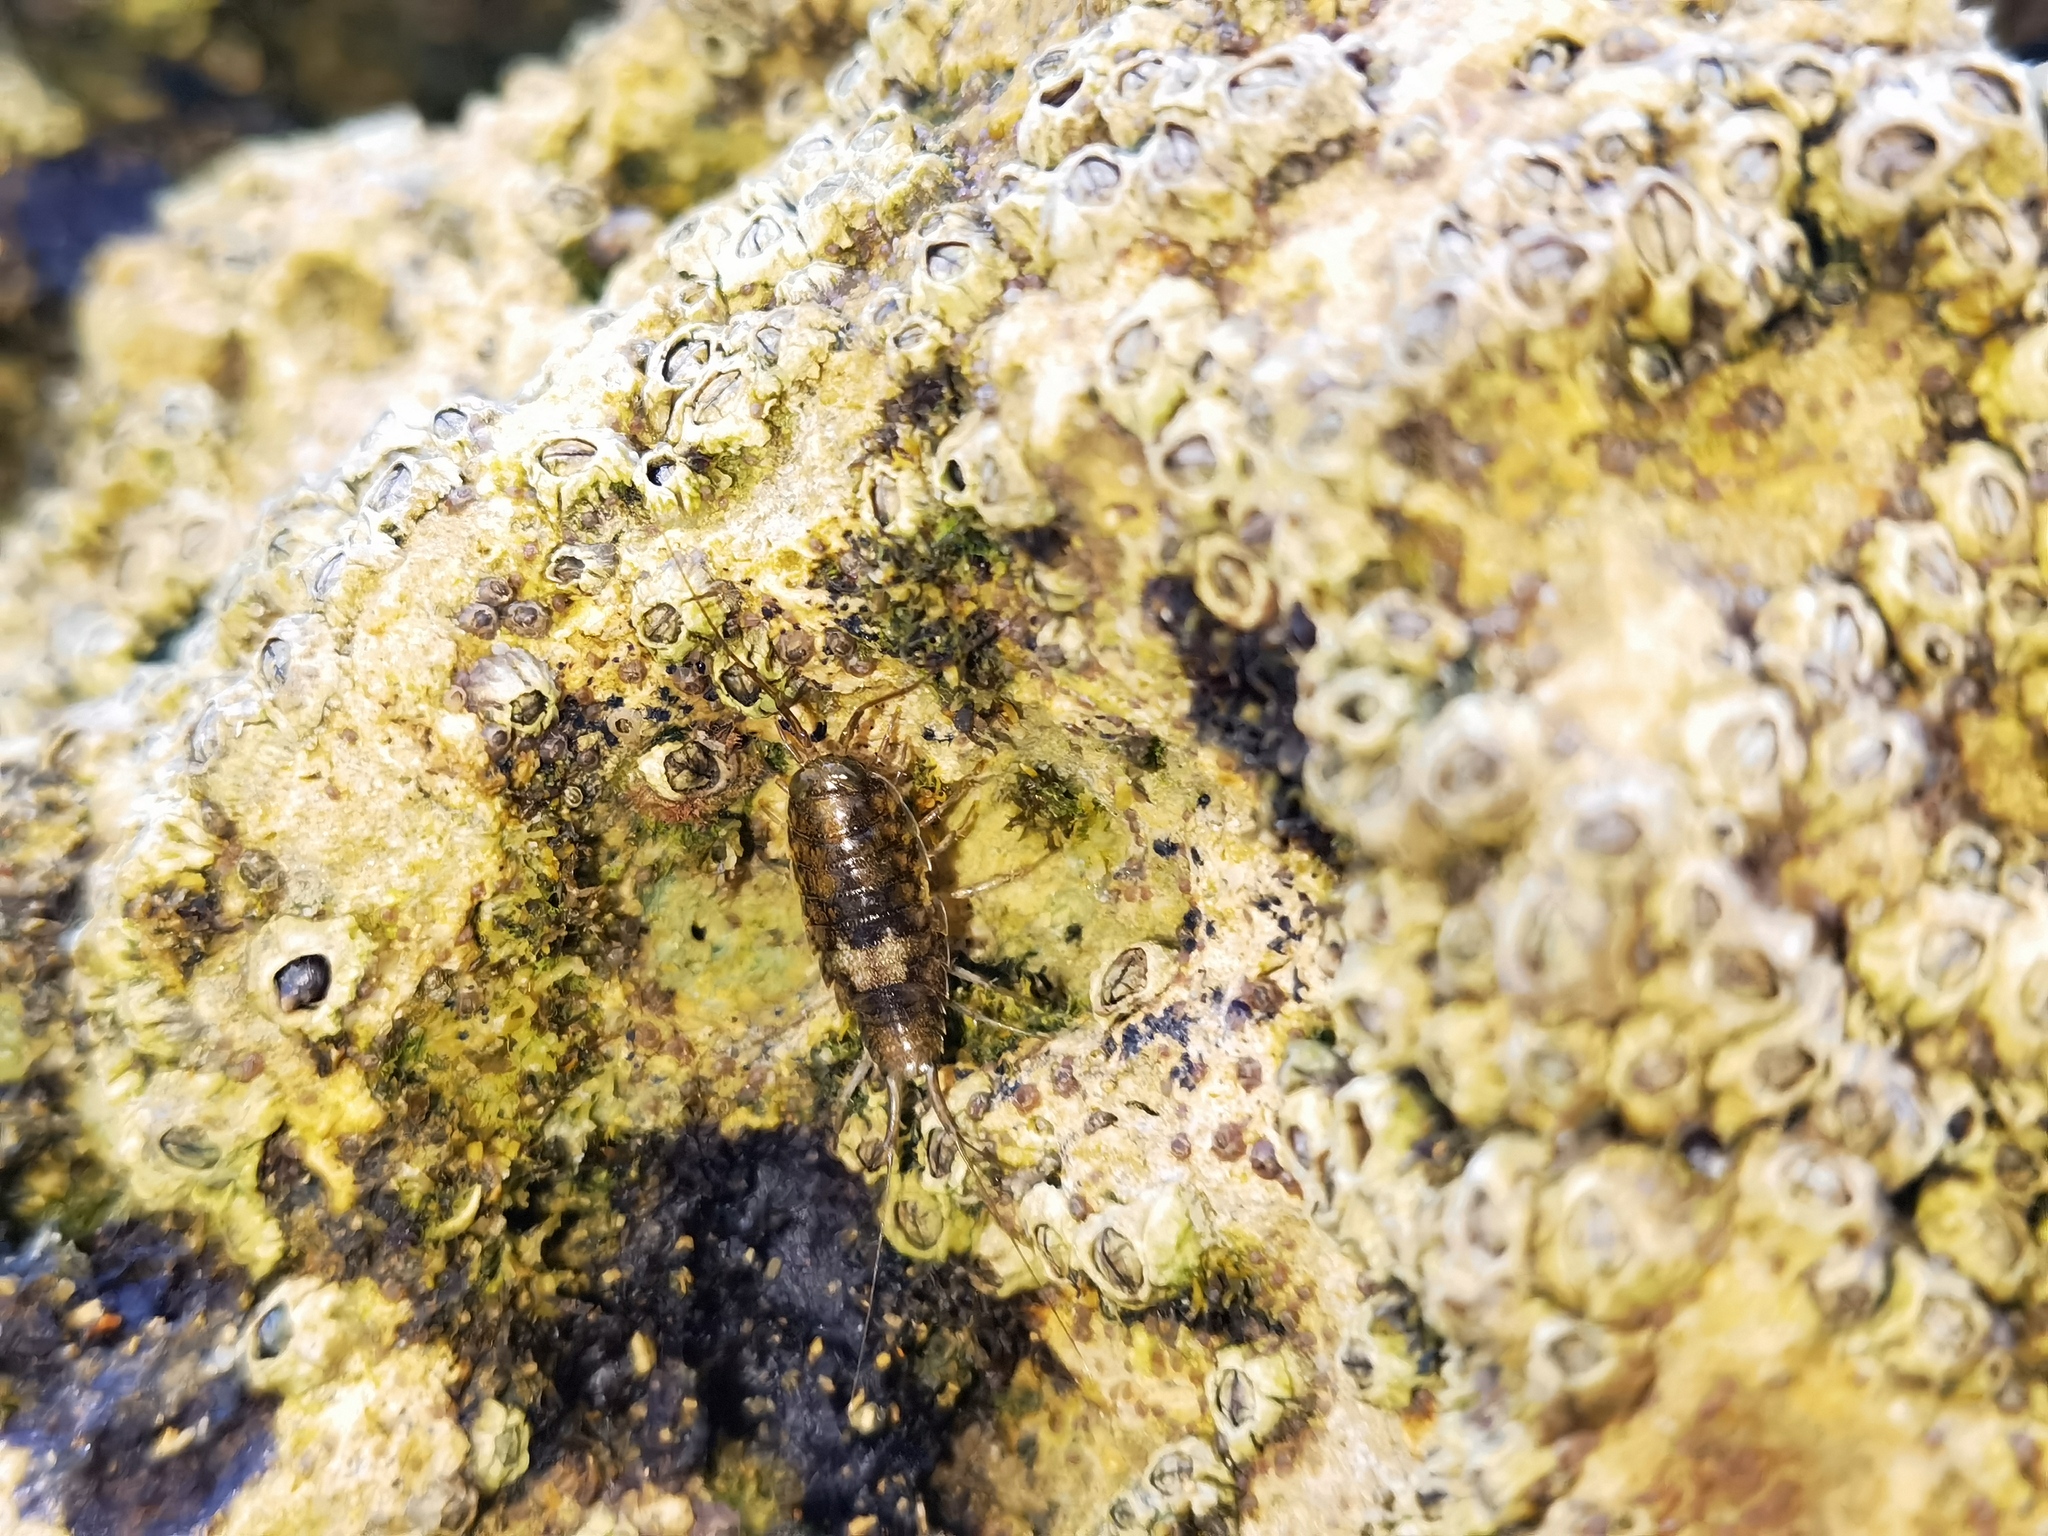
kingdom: Animalia
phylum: Arthropoda
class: Malacostraca
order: Isopoda
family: Ligiidae
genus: Ligia
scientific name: Ligia italica
